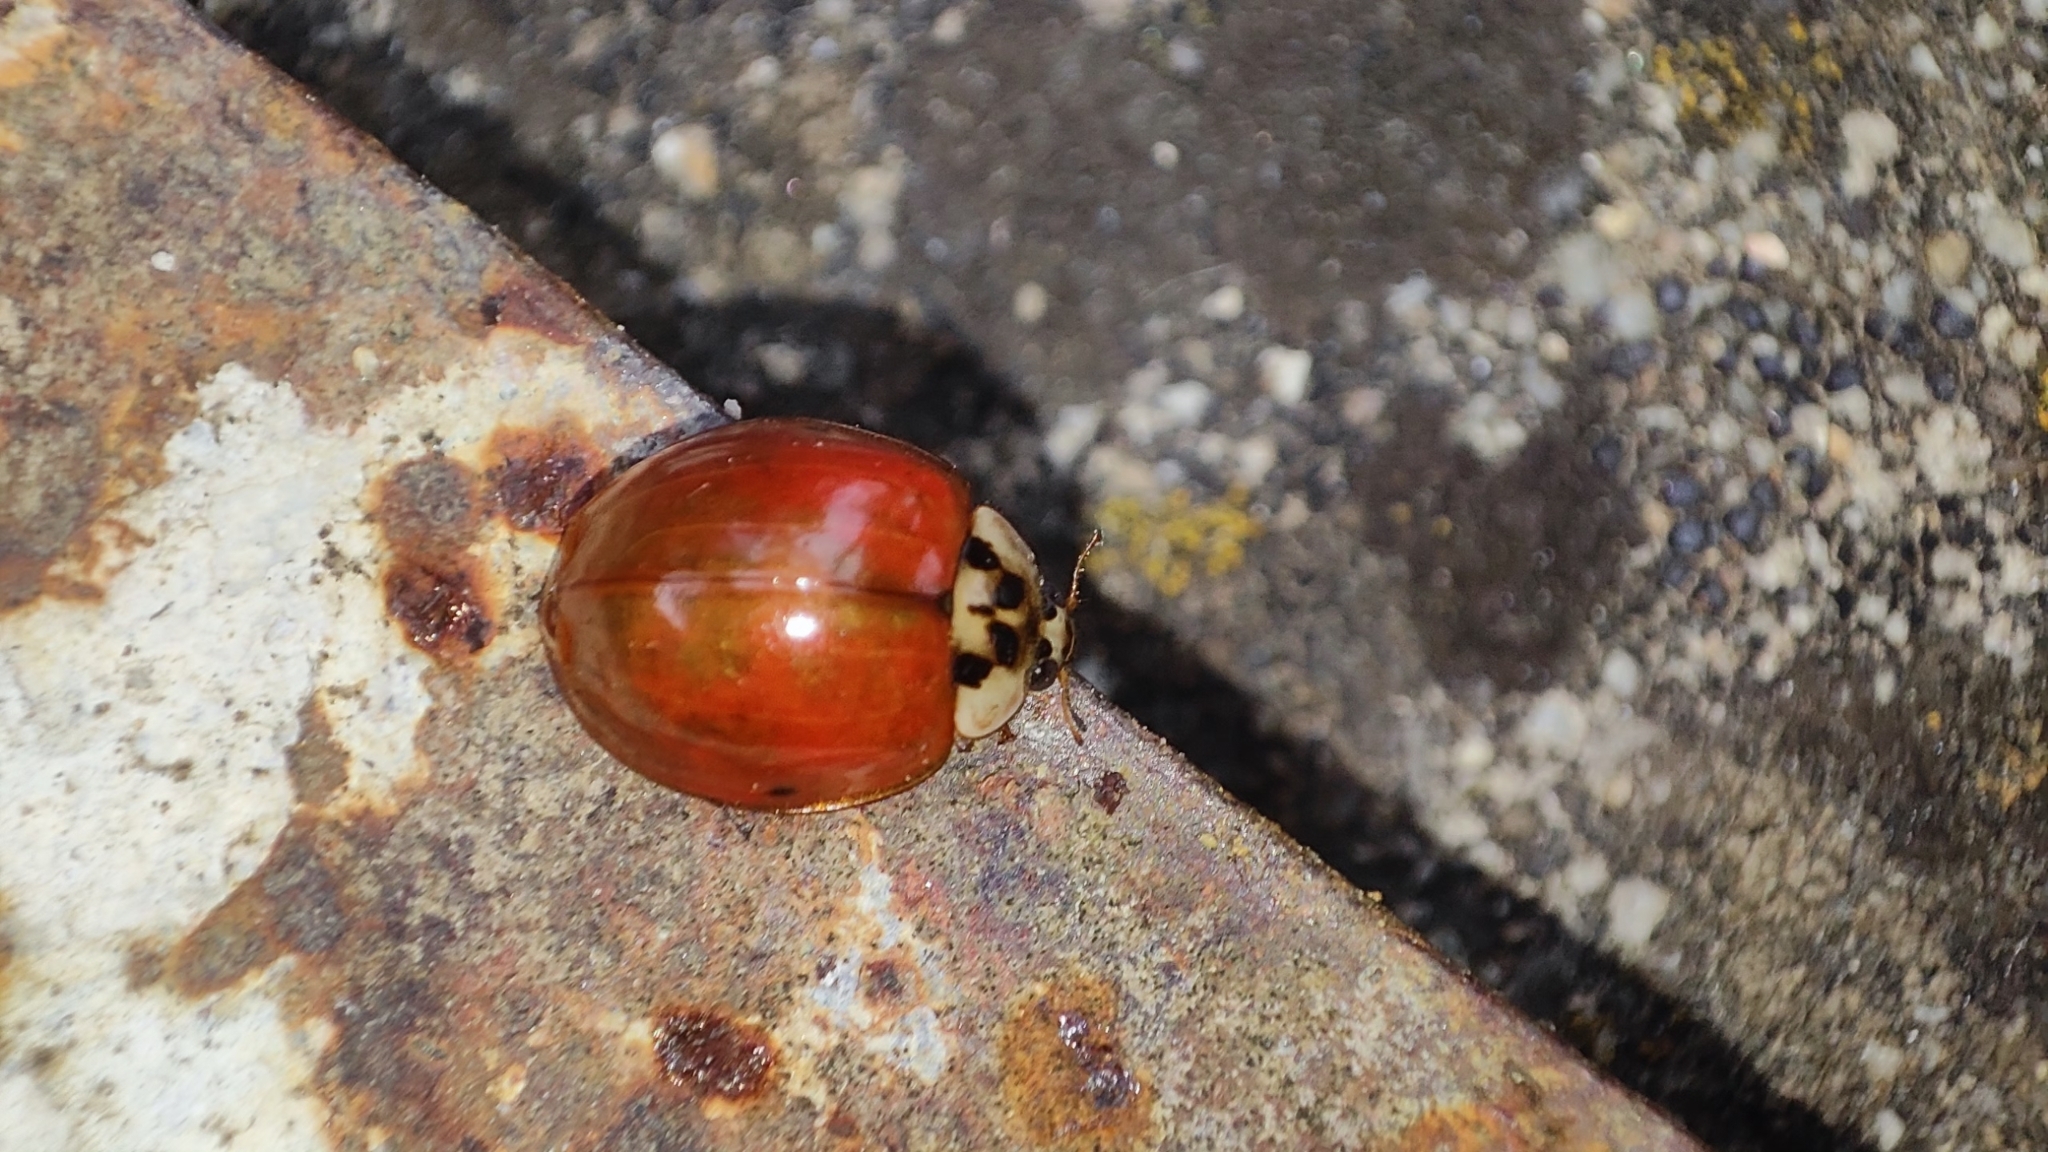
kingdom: Animalia
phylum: Arthropoda
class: Insecta
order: Coleoptera
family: Coccinellidae
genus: Harmonia
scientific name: Harmonia axyridis
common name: Harlequin ladybird
